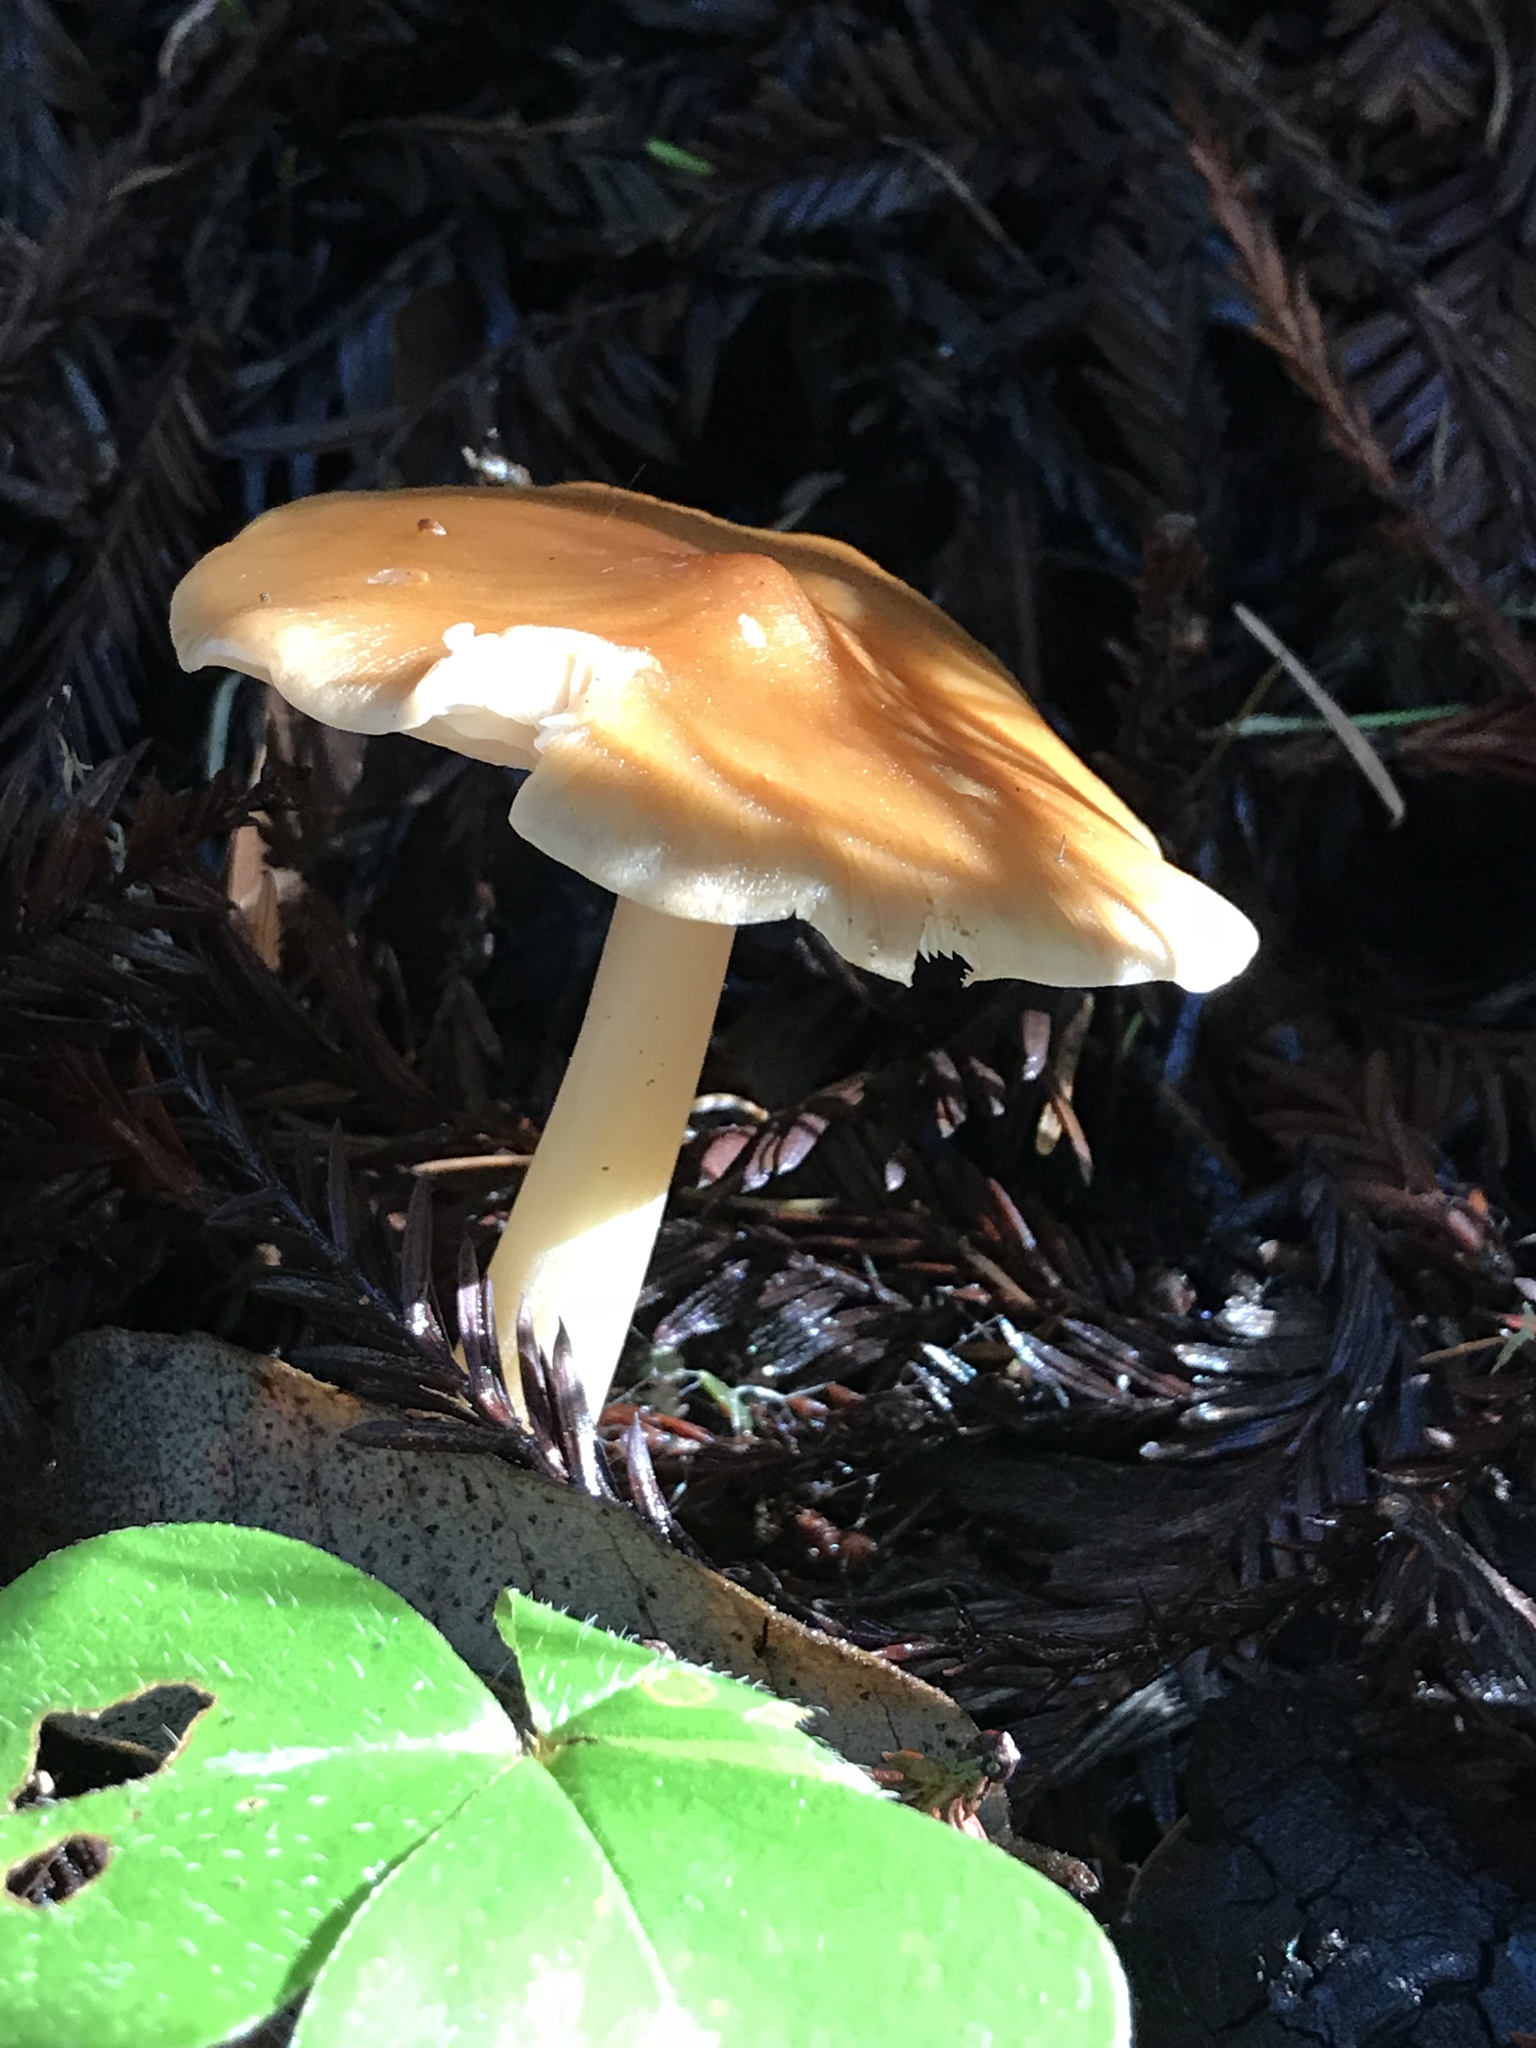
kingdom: Fungi
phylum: Basidiomycota
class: Agaricomycetes
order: Agaricales
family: Tricholomataceae
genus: Caulorhiza
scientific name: Caulorhiza umbonata
